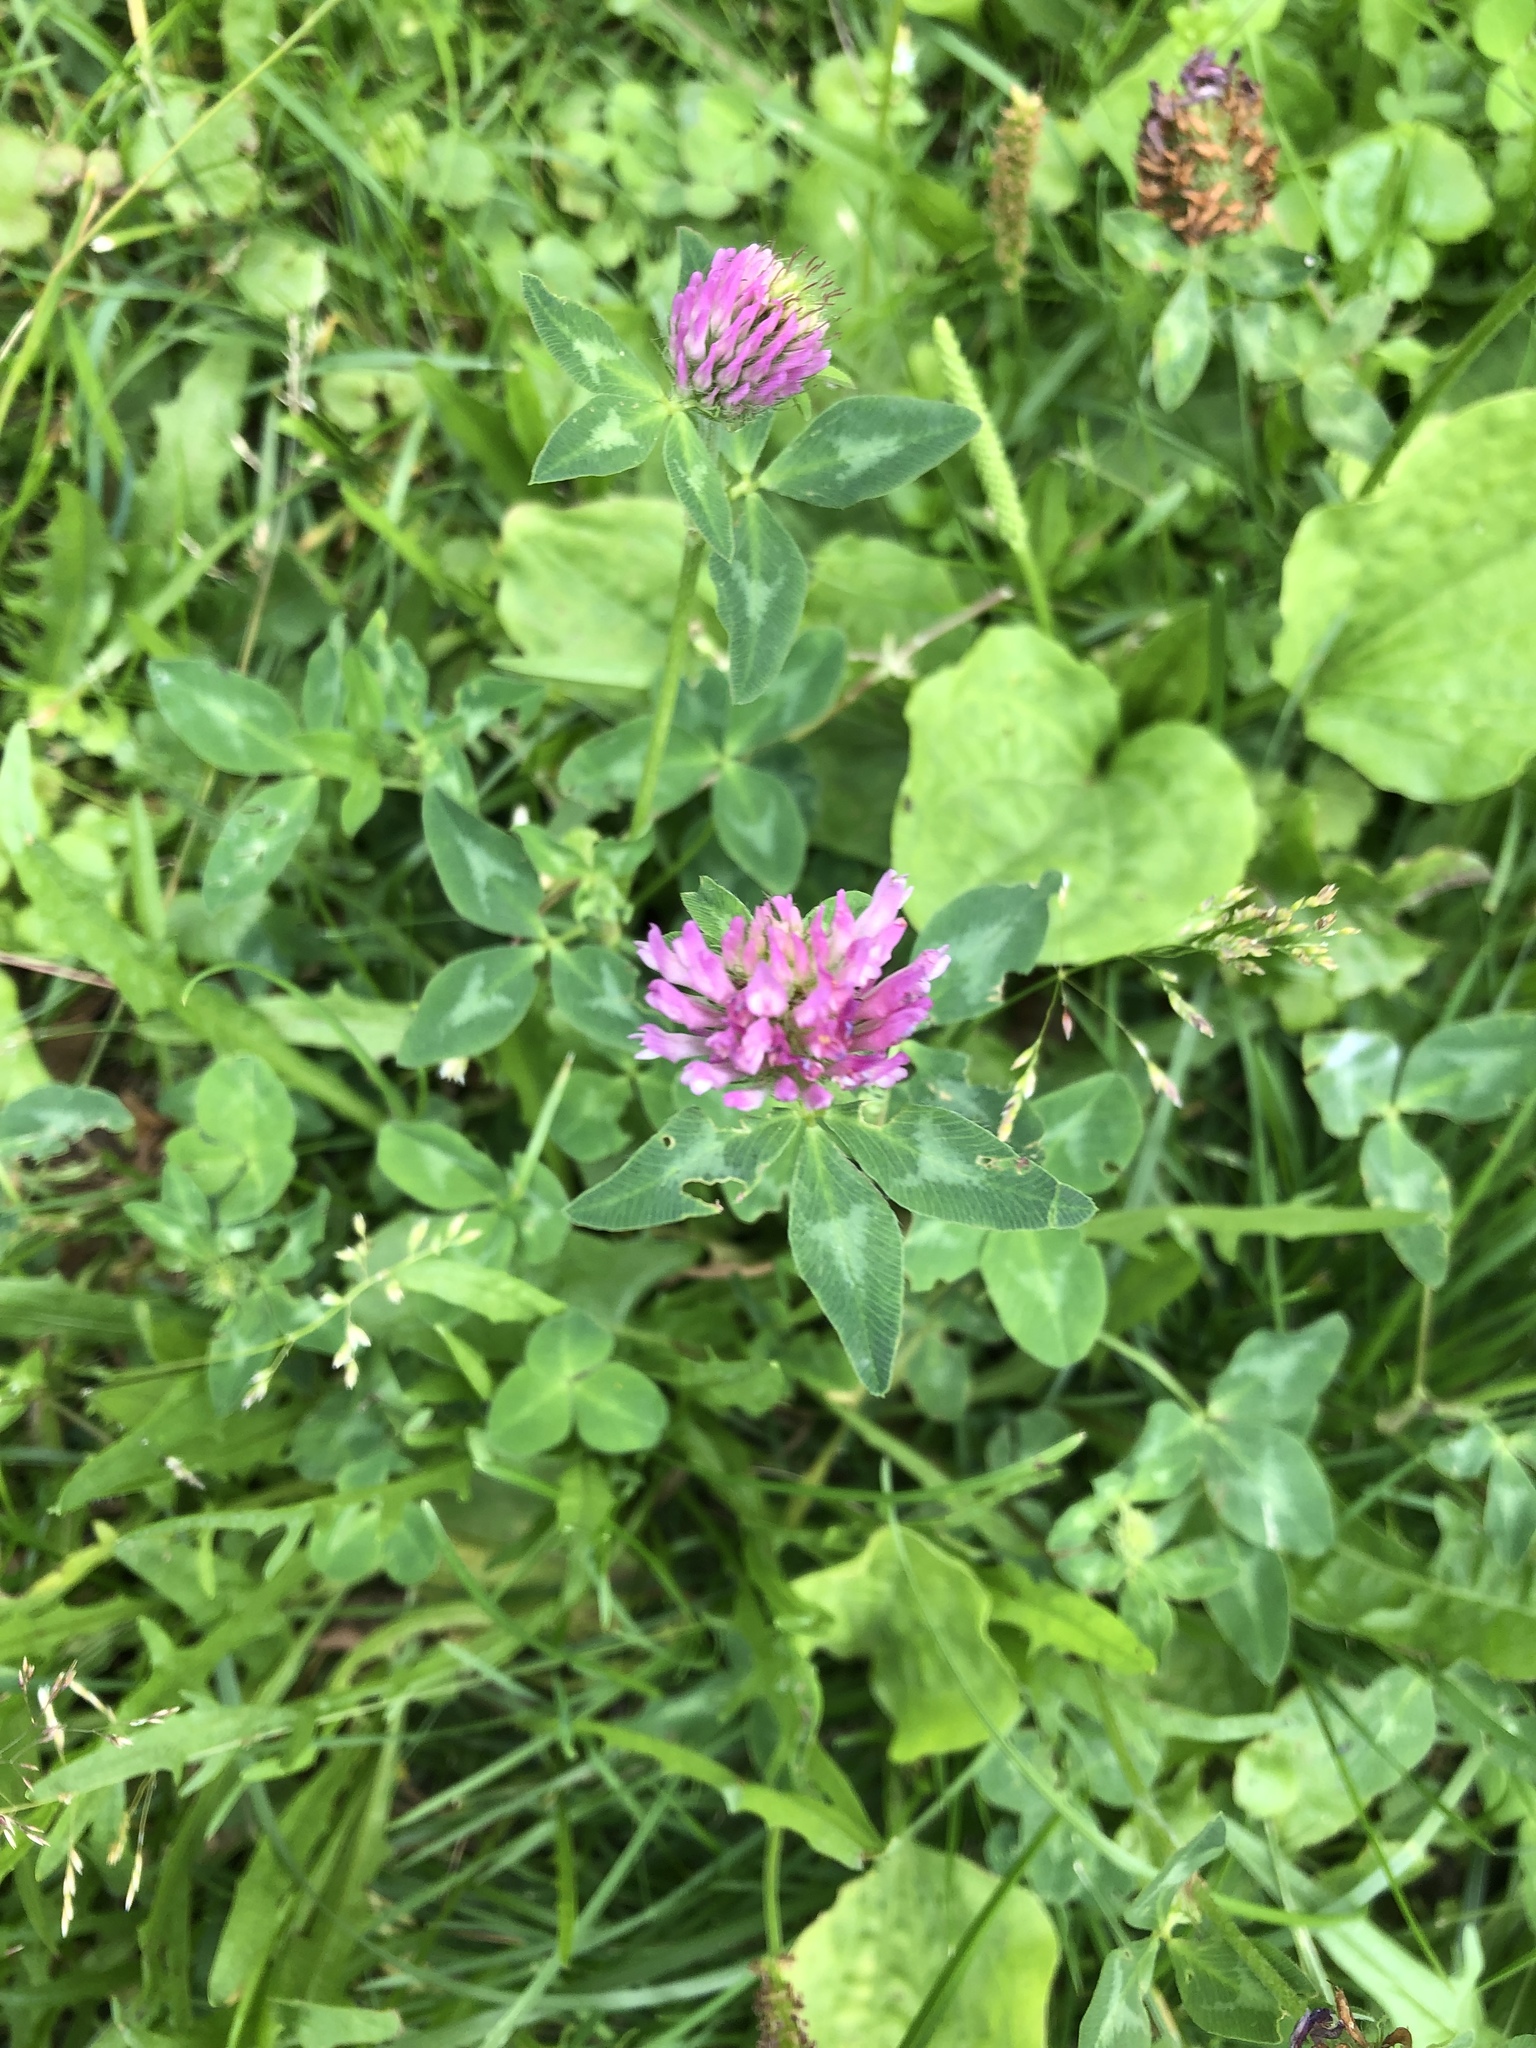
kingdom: Plantae
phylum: Tracheophyta
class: Magnoliopsida
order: Fabales
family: Fabaceae
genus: Trifolium
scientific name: Trifolium pratense
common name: Red clover
